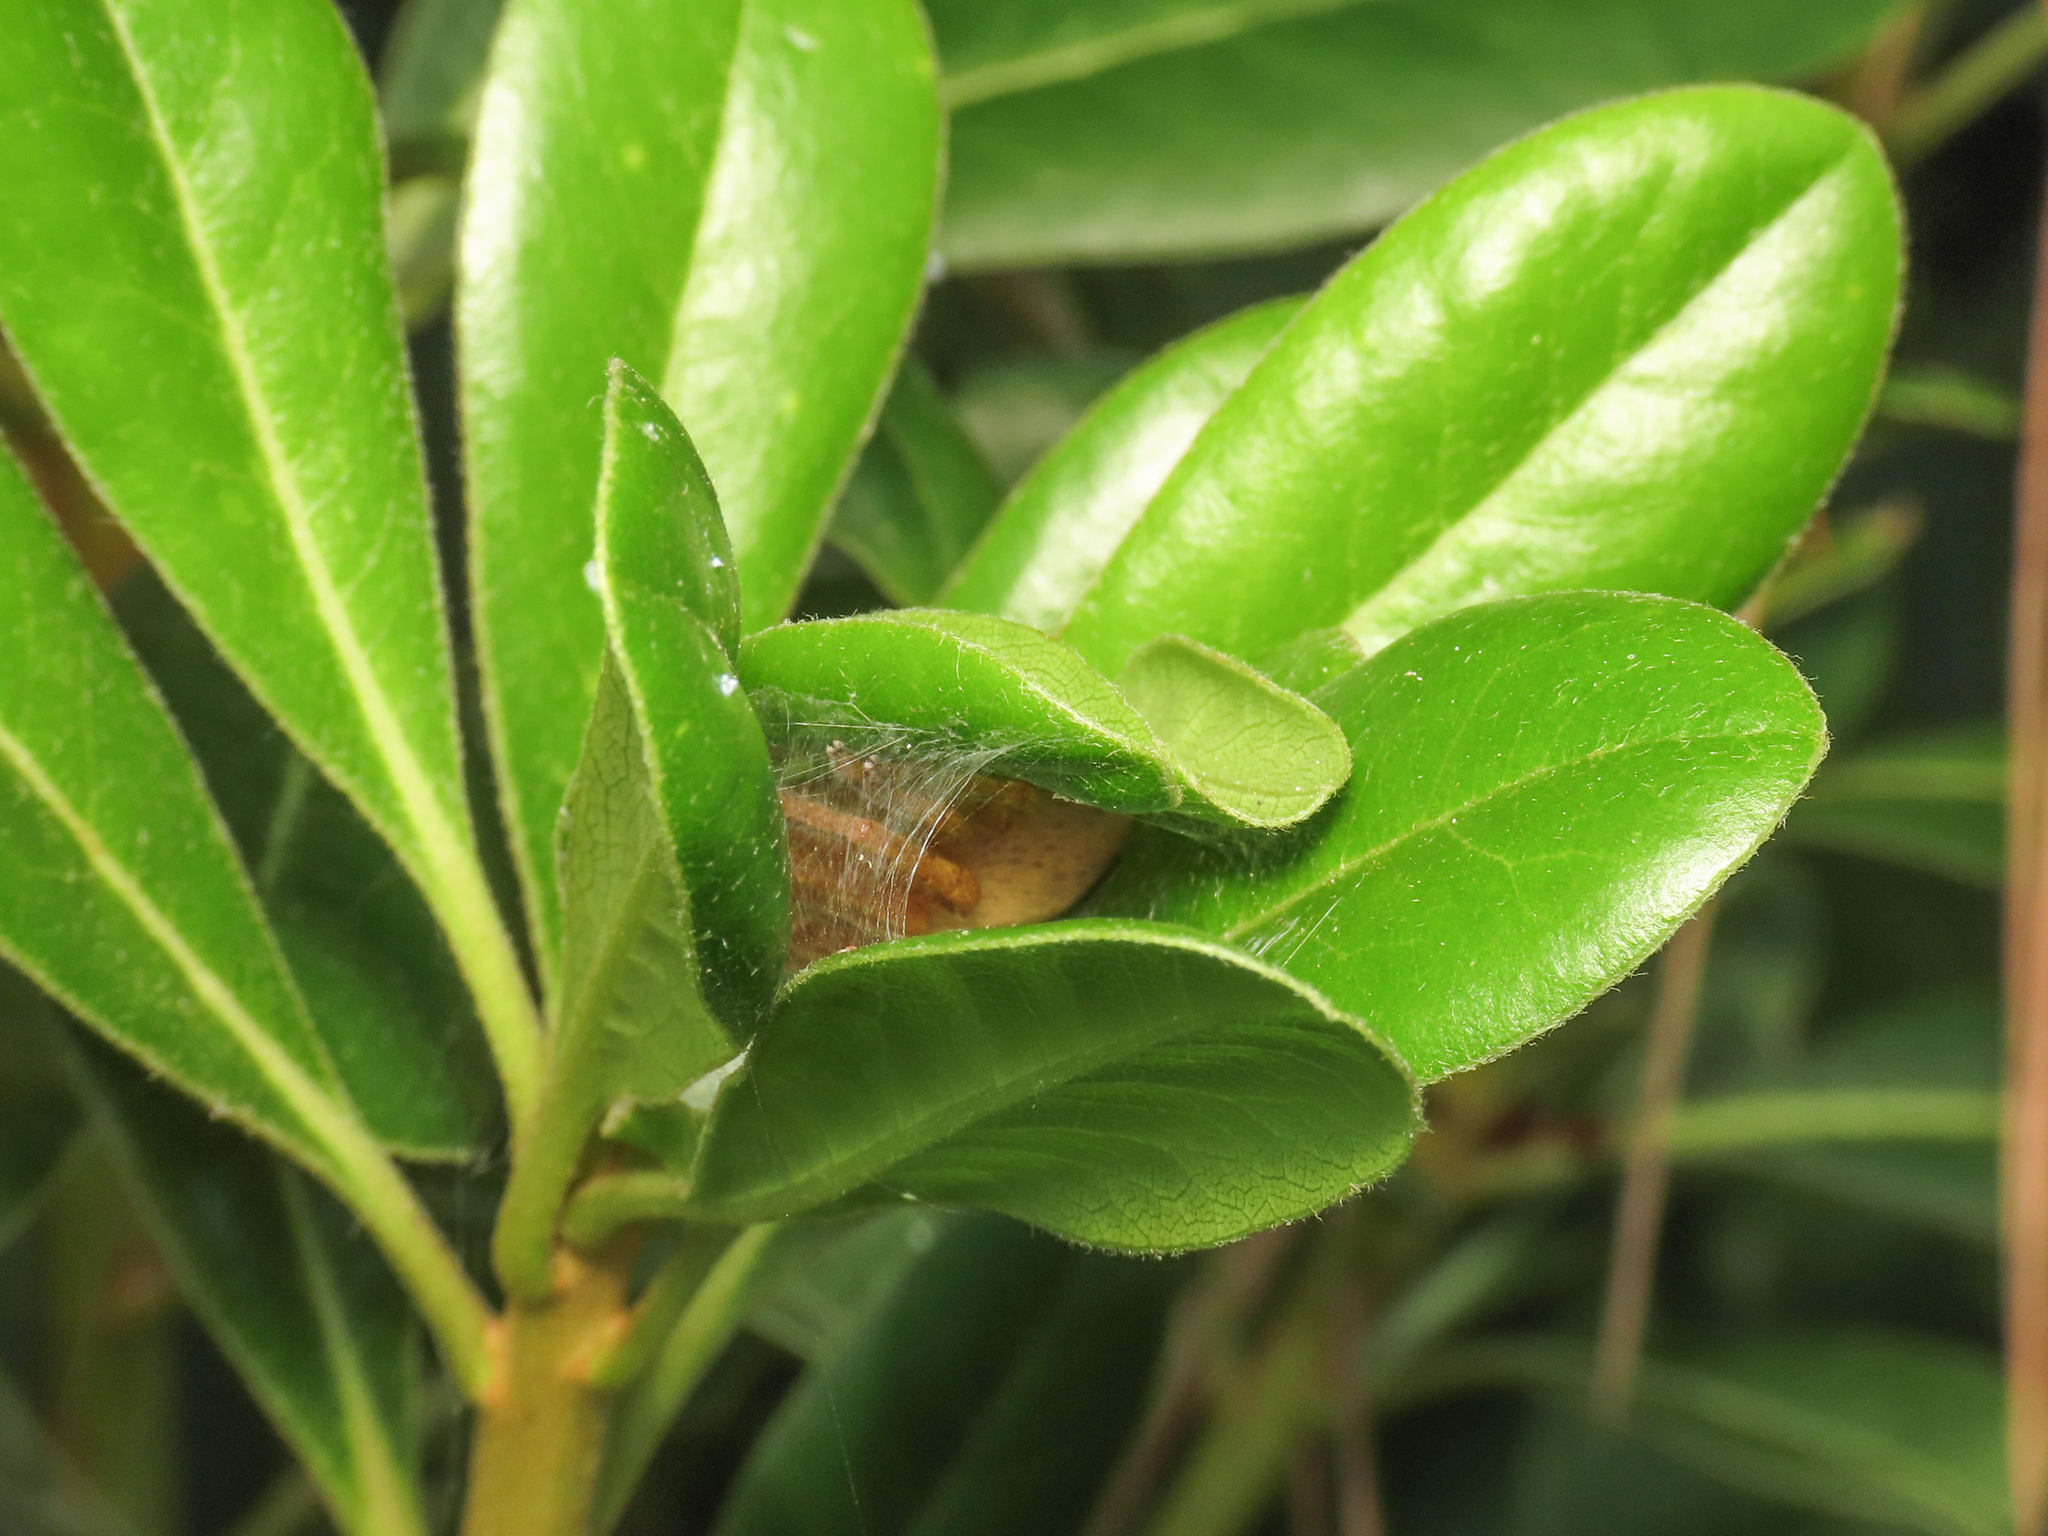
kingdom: Animalia
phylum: Arthropoda
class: Arachnida
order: Araneae
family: Sparassidae
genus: Olios
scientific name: Olios argelasius
